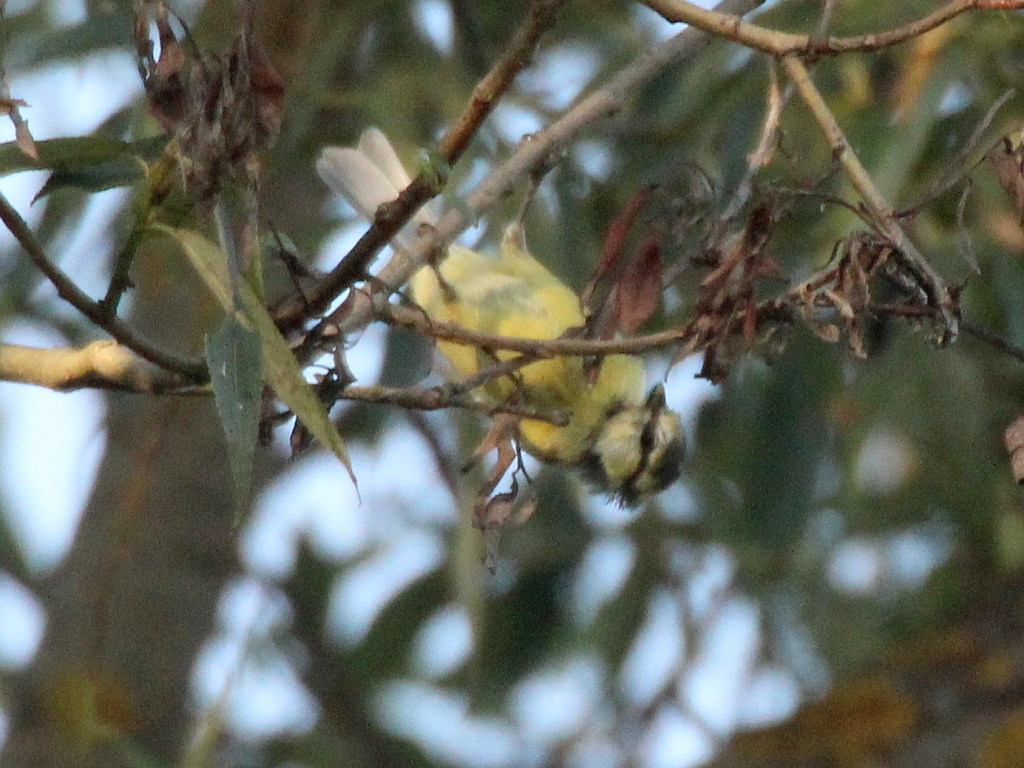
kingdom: Animalia
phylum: Chordata
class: Aves
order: Passeriformes
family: Paridae
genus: Cyanistes
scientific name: Cyanistes caeruleus
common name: Eurasian blue tit
